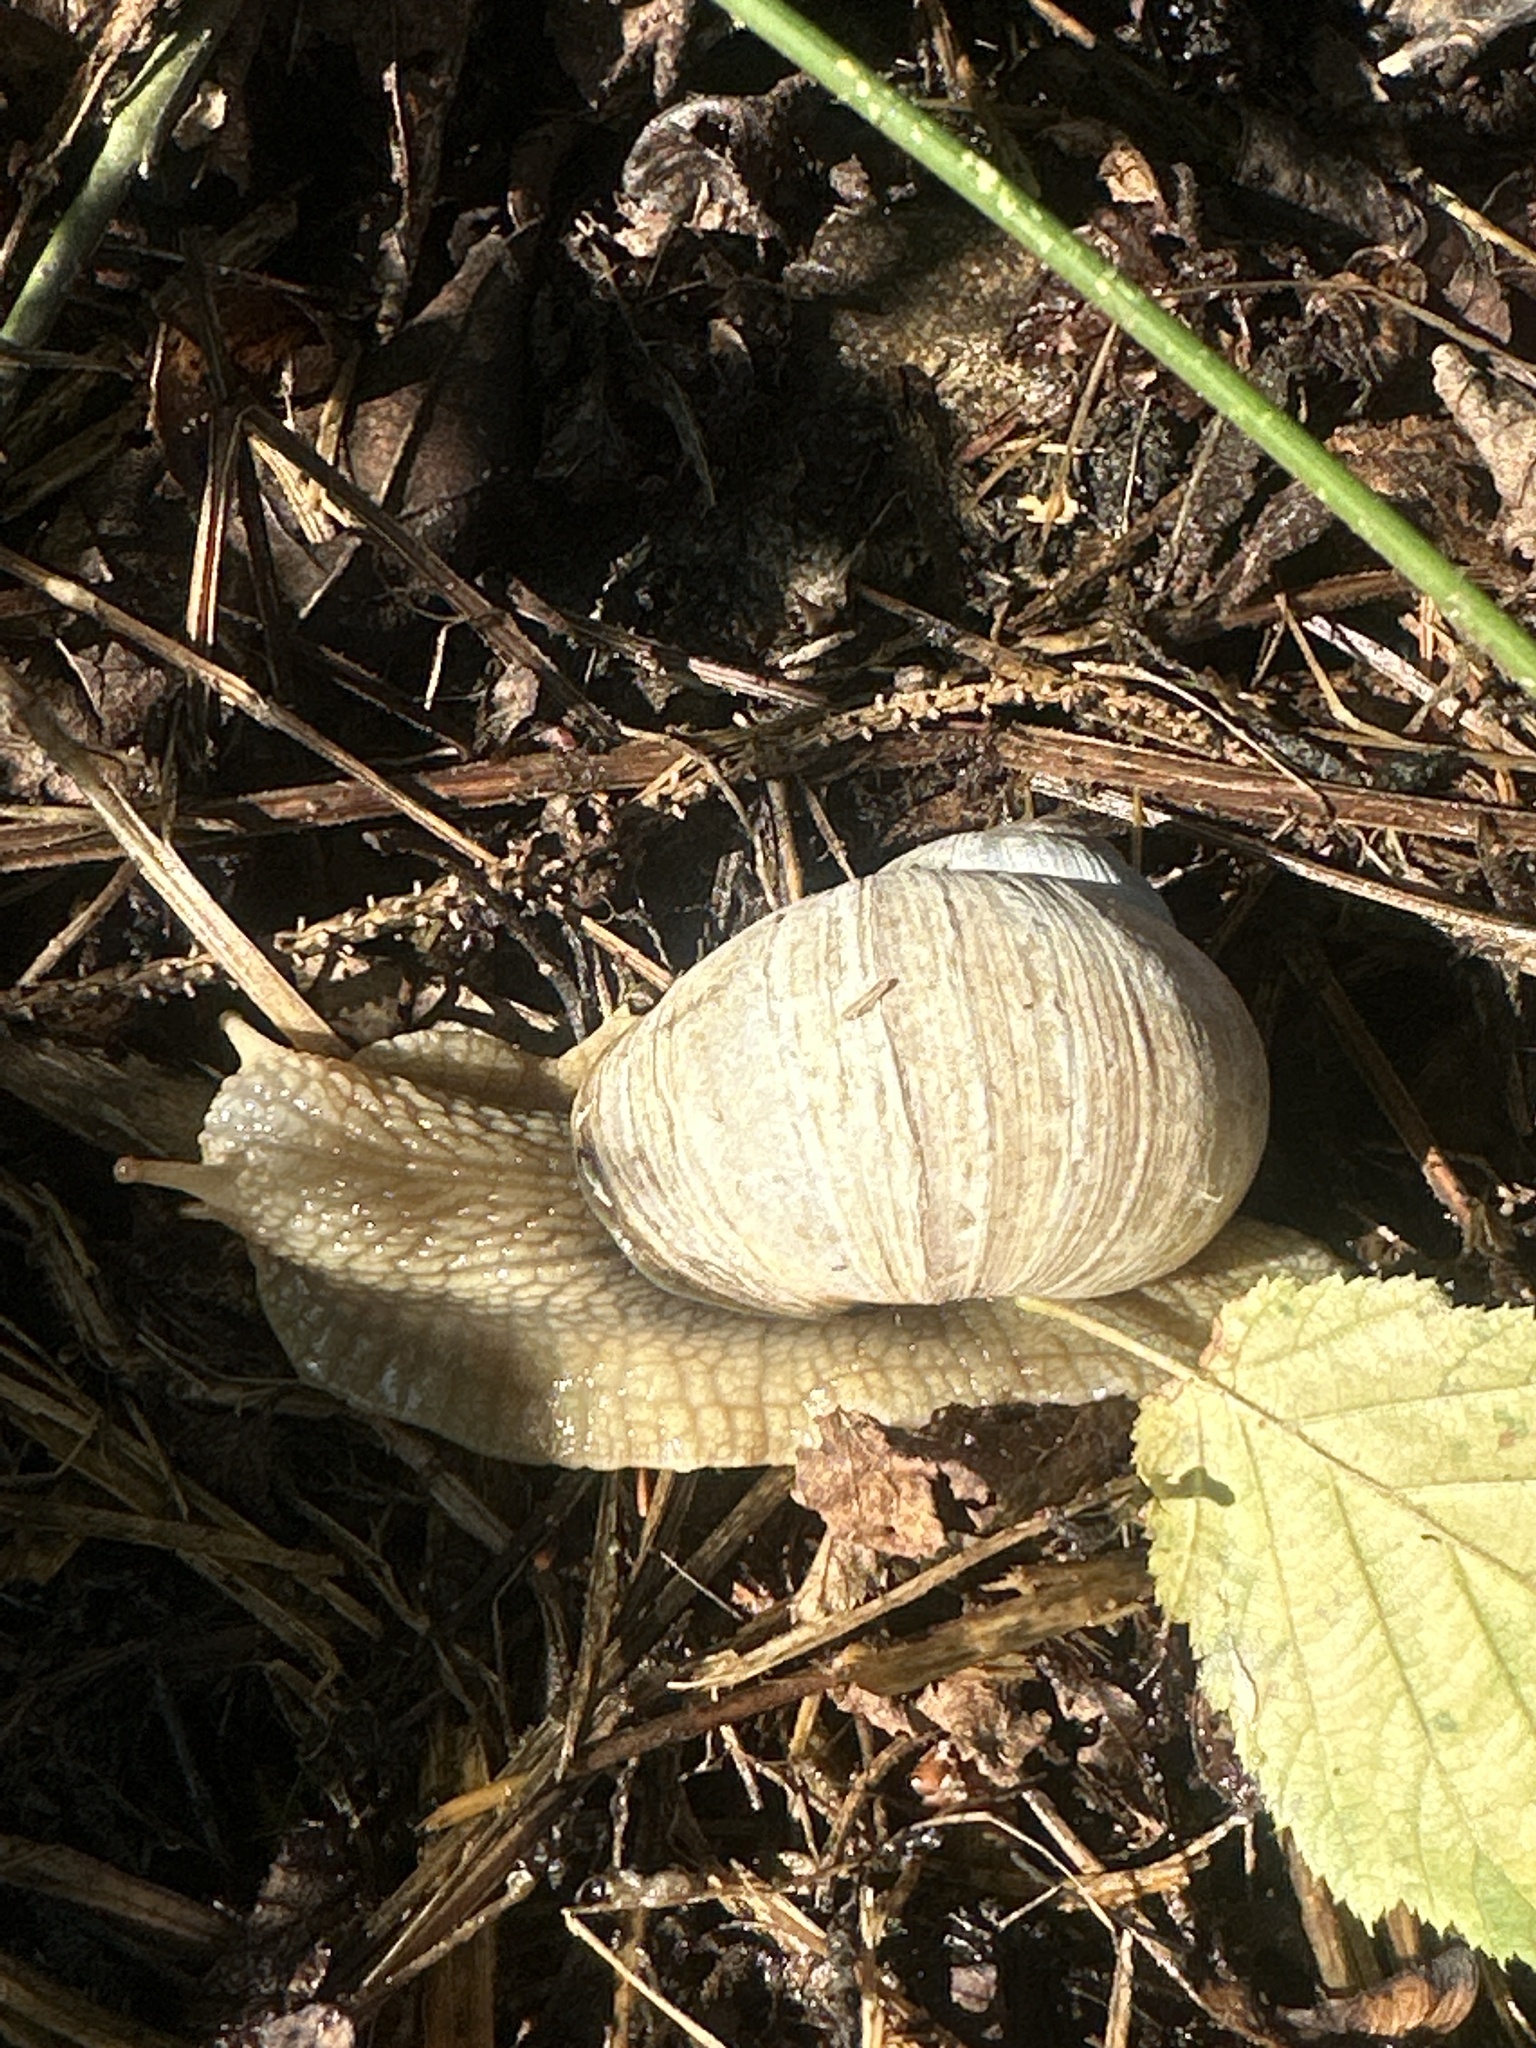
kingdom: Animalia
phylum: Mollusca
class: Gastropoda
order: Stylommatophora
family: Helicidae
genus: Helix
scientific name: Helix pomatia
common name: Roman snail
